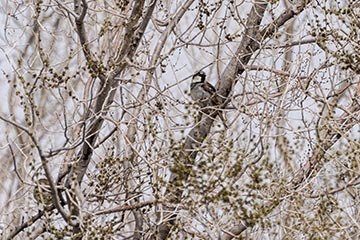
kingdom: Animalia
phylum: Chordata
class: Aves
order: Passeriformes
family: Passeridae
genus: Passer
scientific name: Passer domesticus
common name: House sparrow
